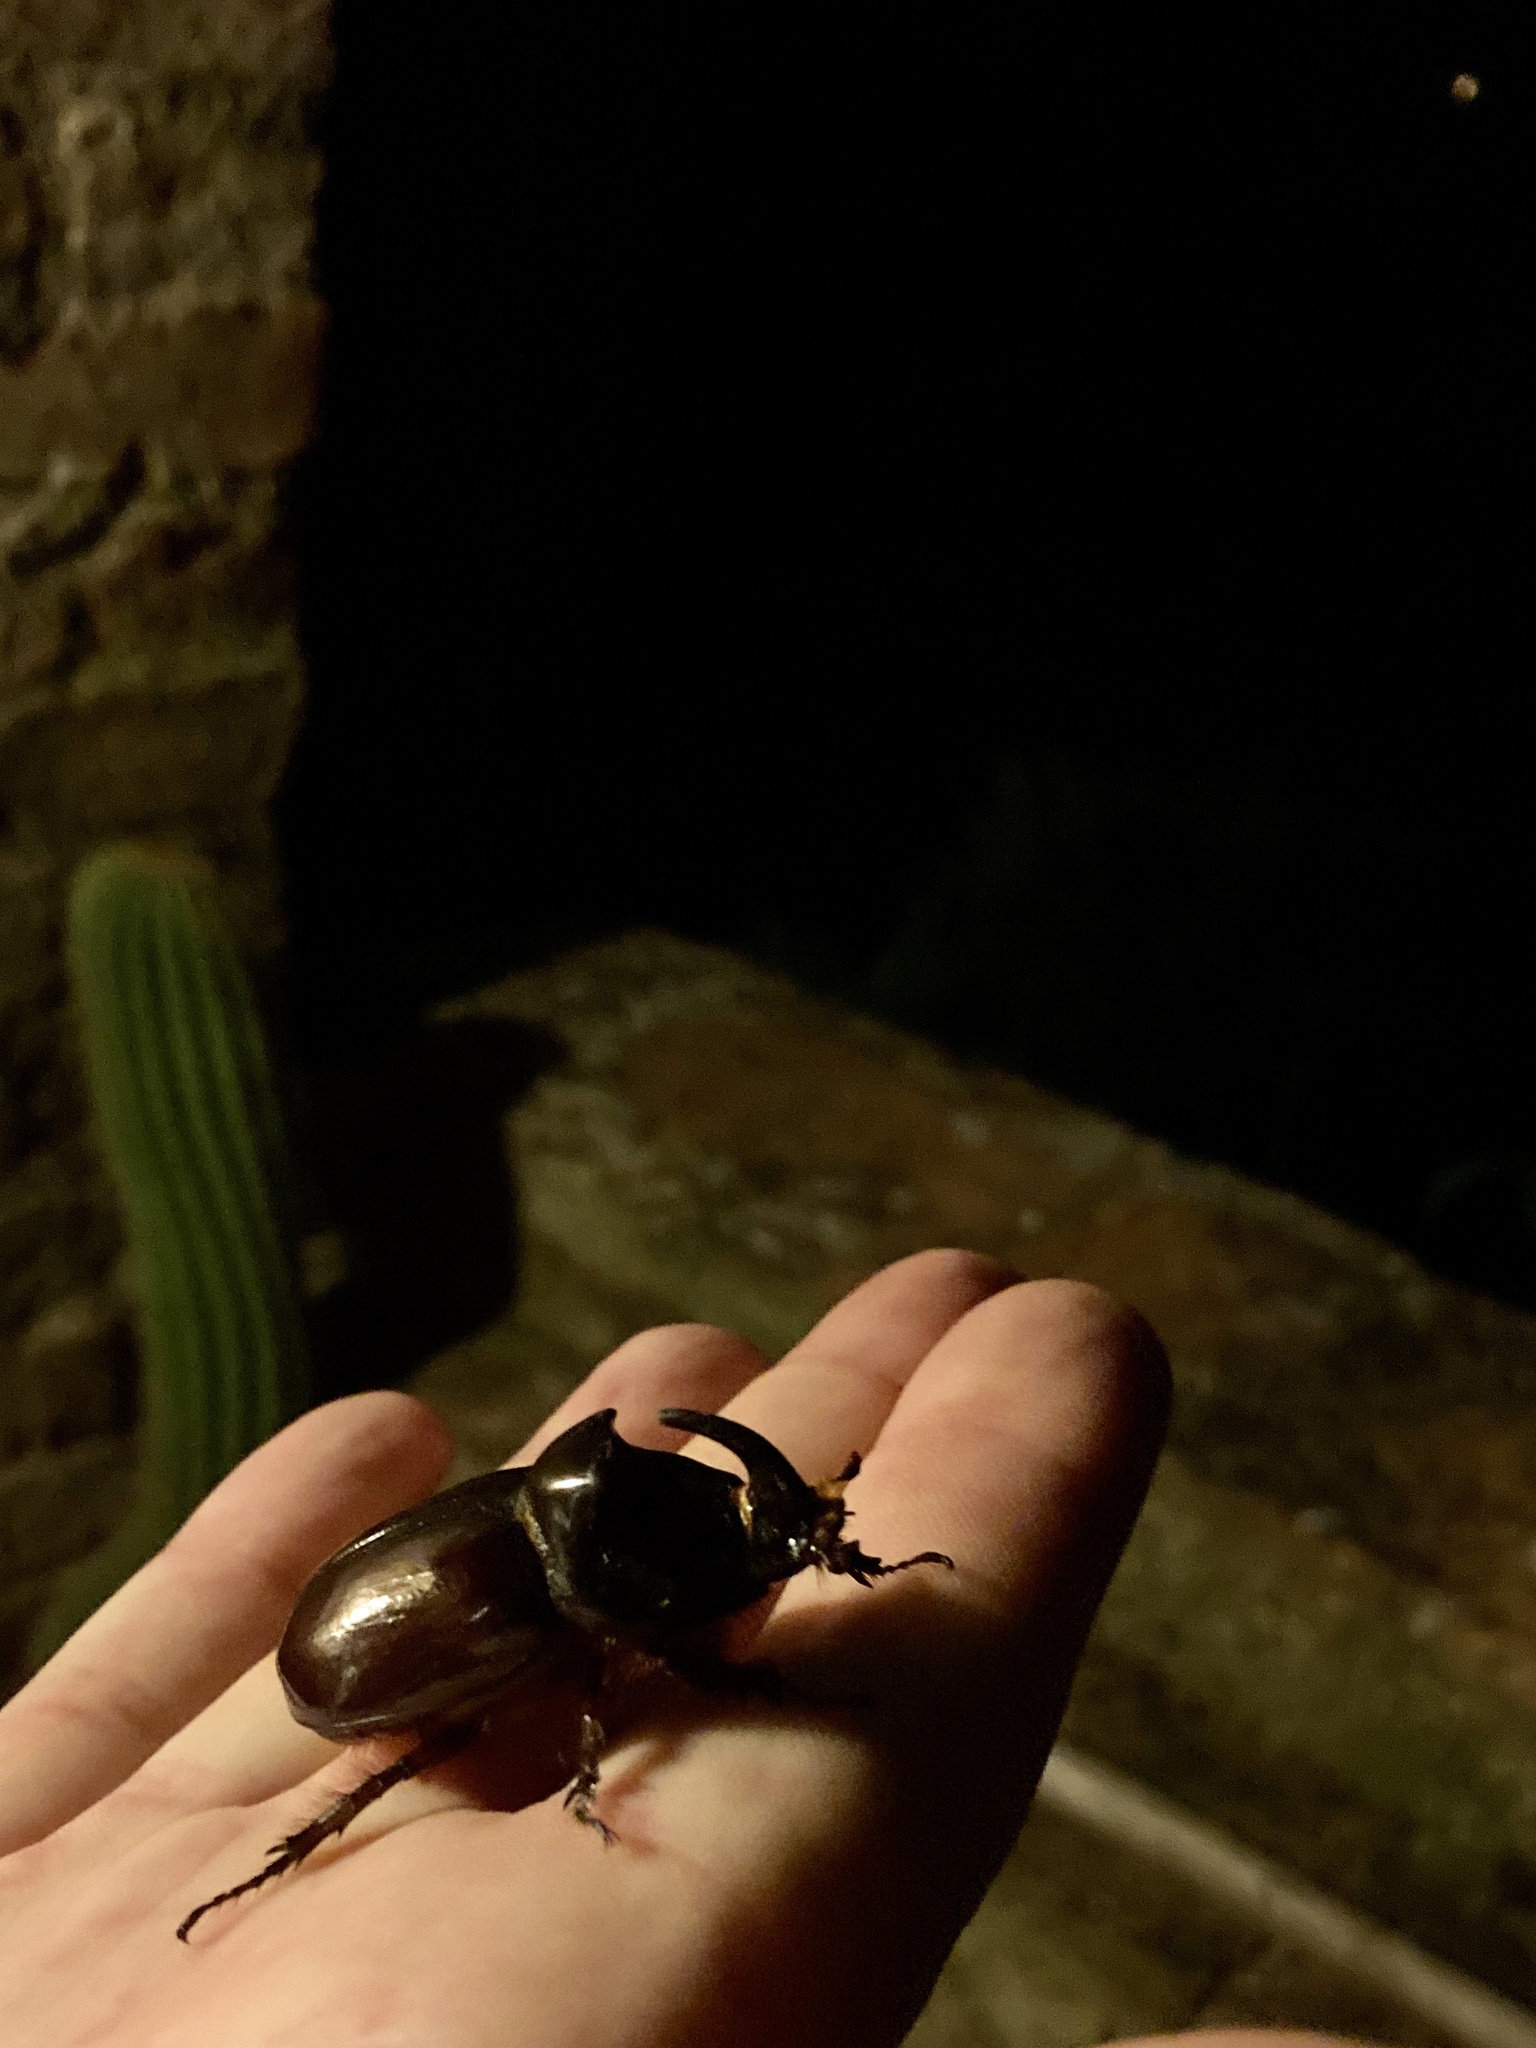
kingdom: Animalia
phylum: Arthropoda
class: Insecta
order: Coleoptera
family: Scarabaeidae
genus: Oryctes
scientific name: Oryctes nasicornis
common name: European rhinoceros beetle
